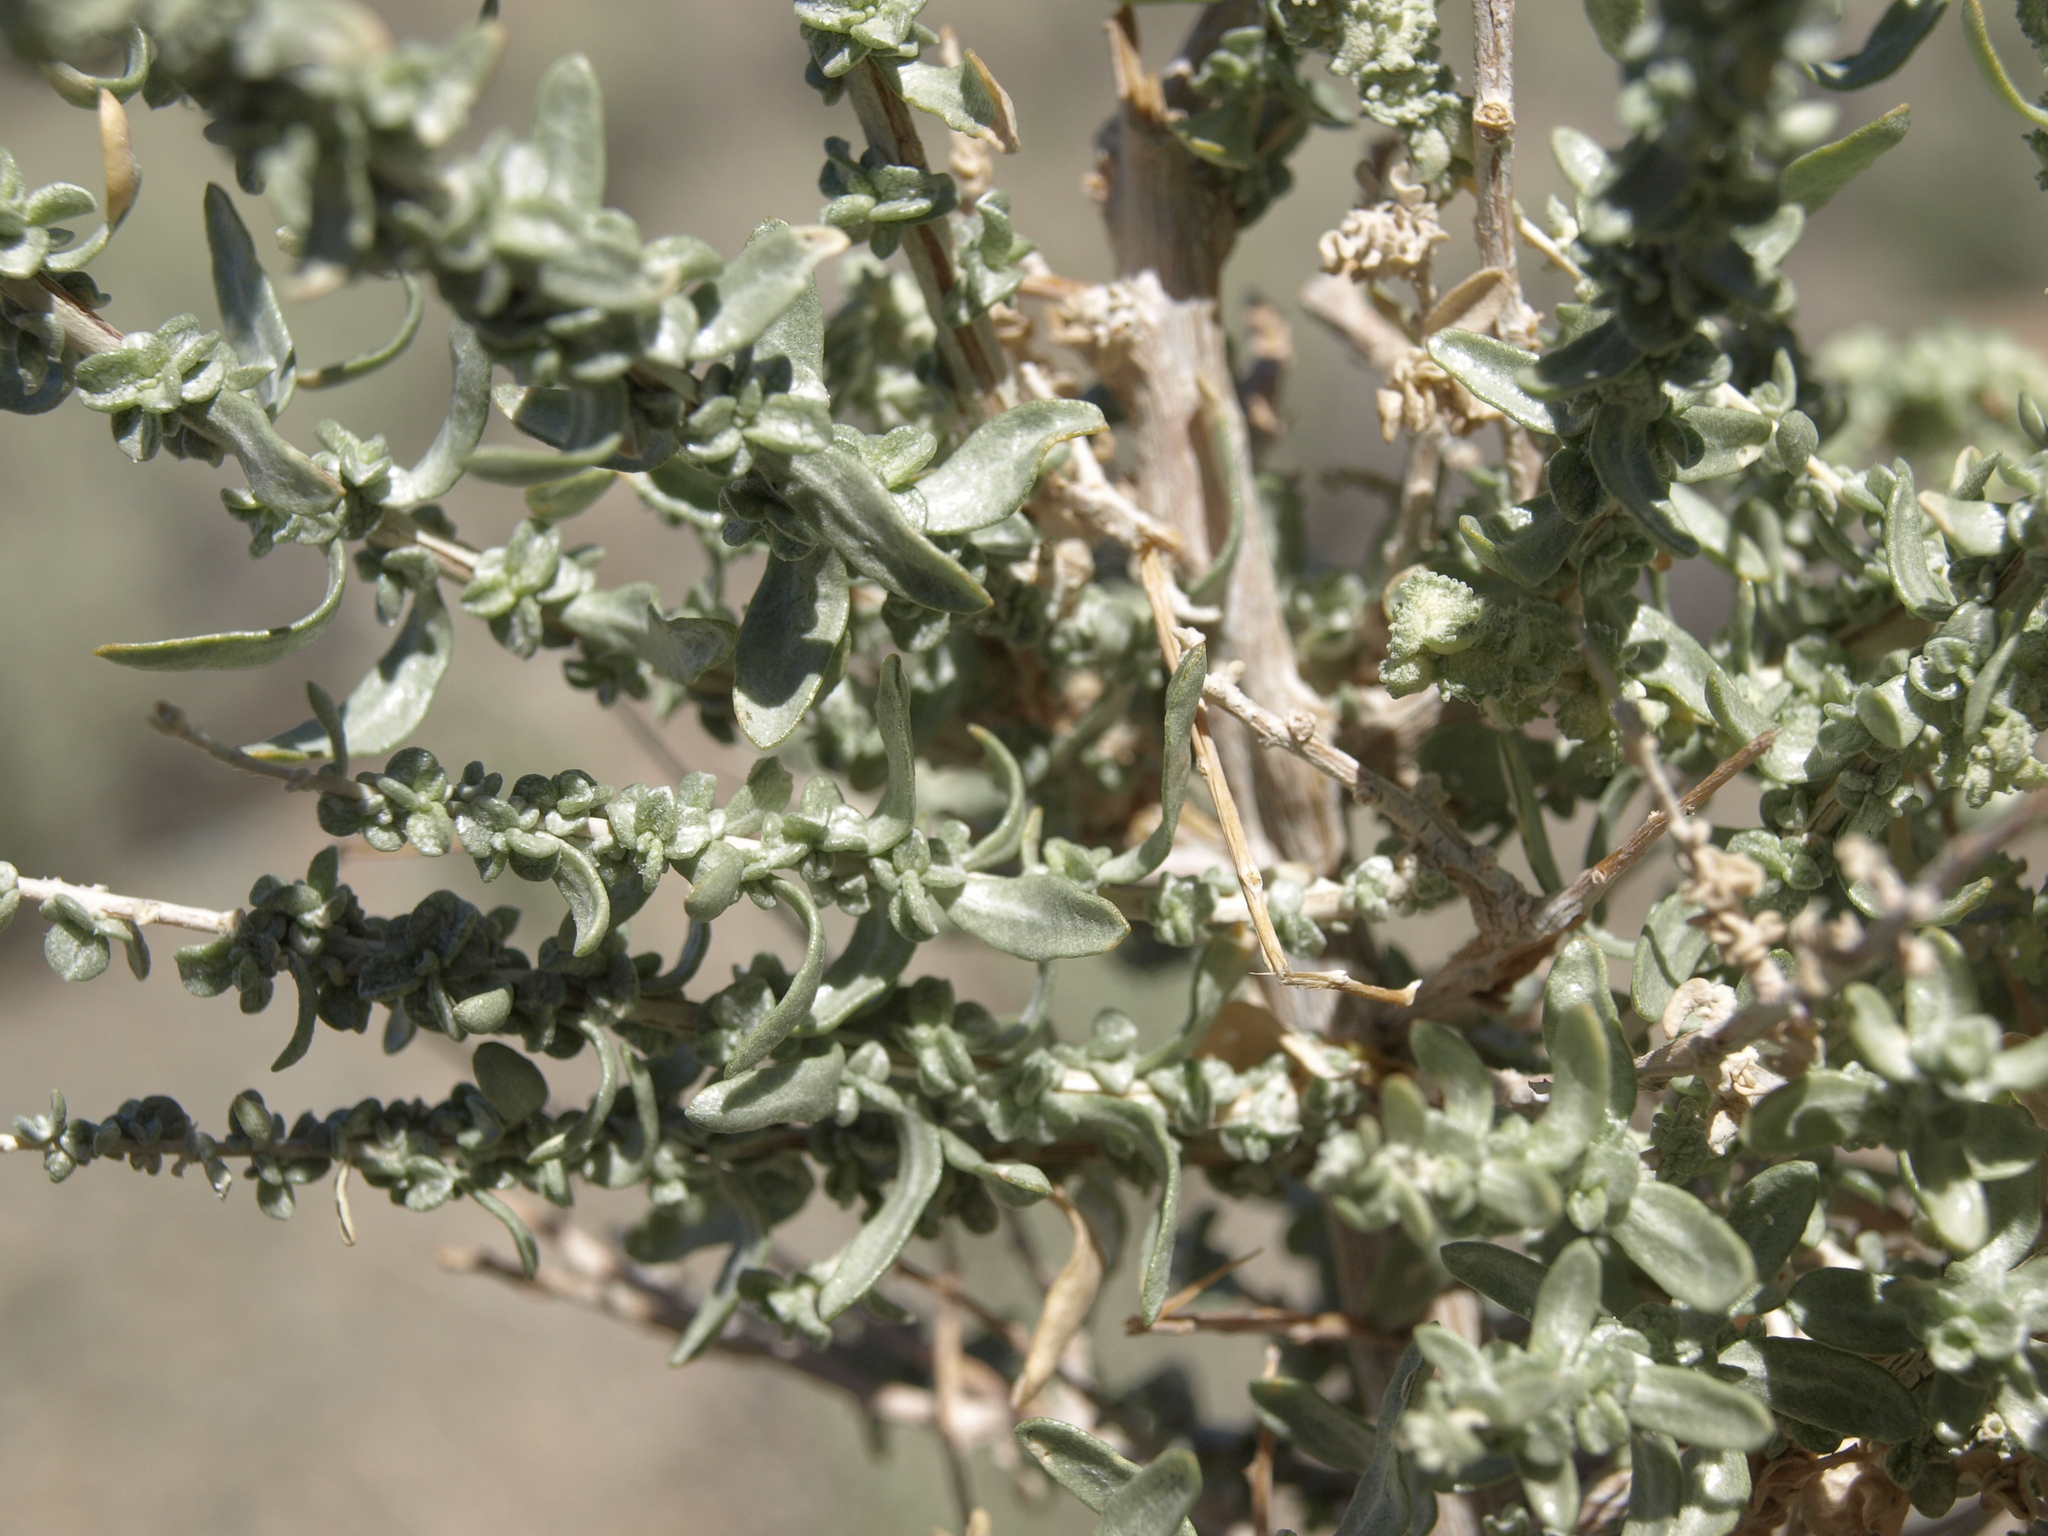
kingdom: Plantae
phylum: Tracheophyta
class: Magnoliopsida
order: Caryophyllales
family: Amaranthaceae
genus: Atriplex
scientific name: Atriplex polycarpa
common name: Desert saltbush
